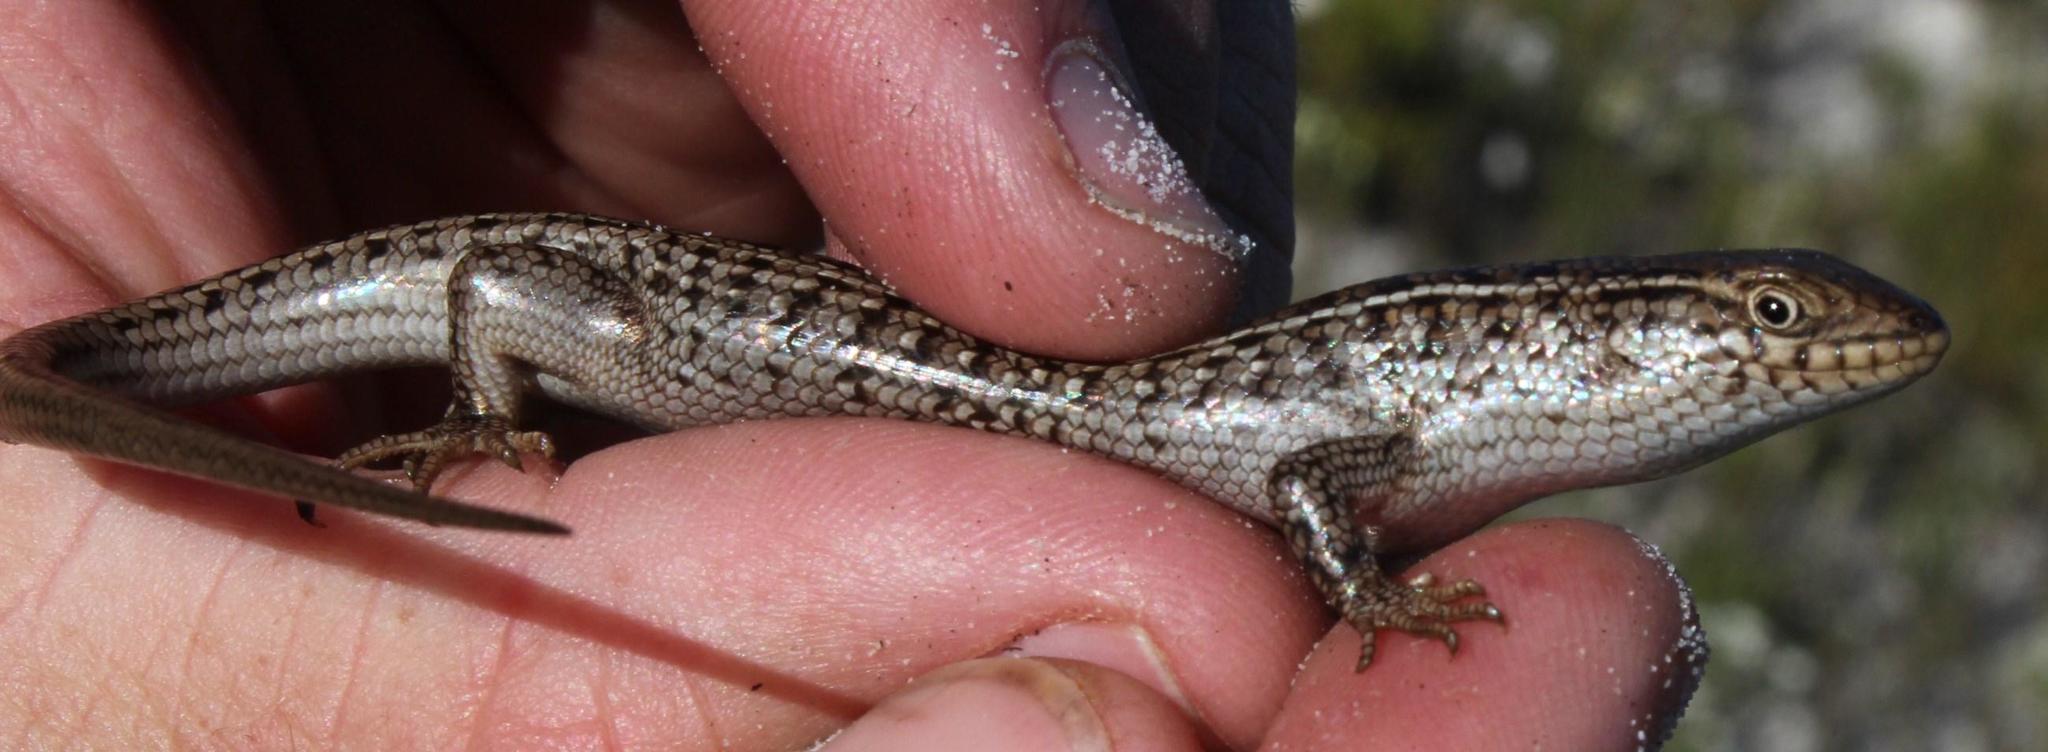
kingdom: Animalia
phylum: Chordata
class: Squamata
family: Scincidae
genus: Trachylepis
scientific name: Trachylepis capensis
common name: Cape skink
